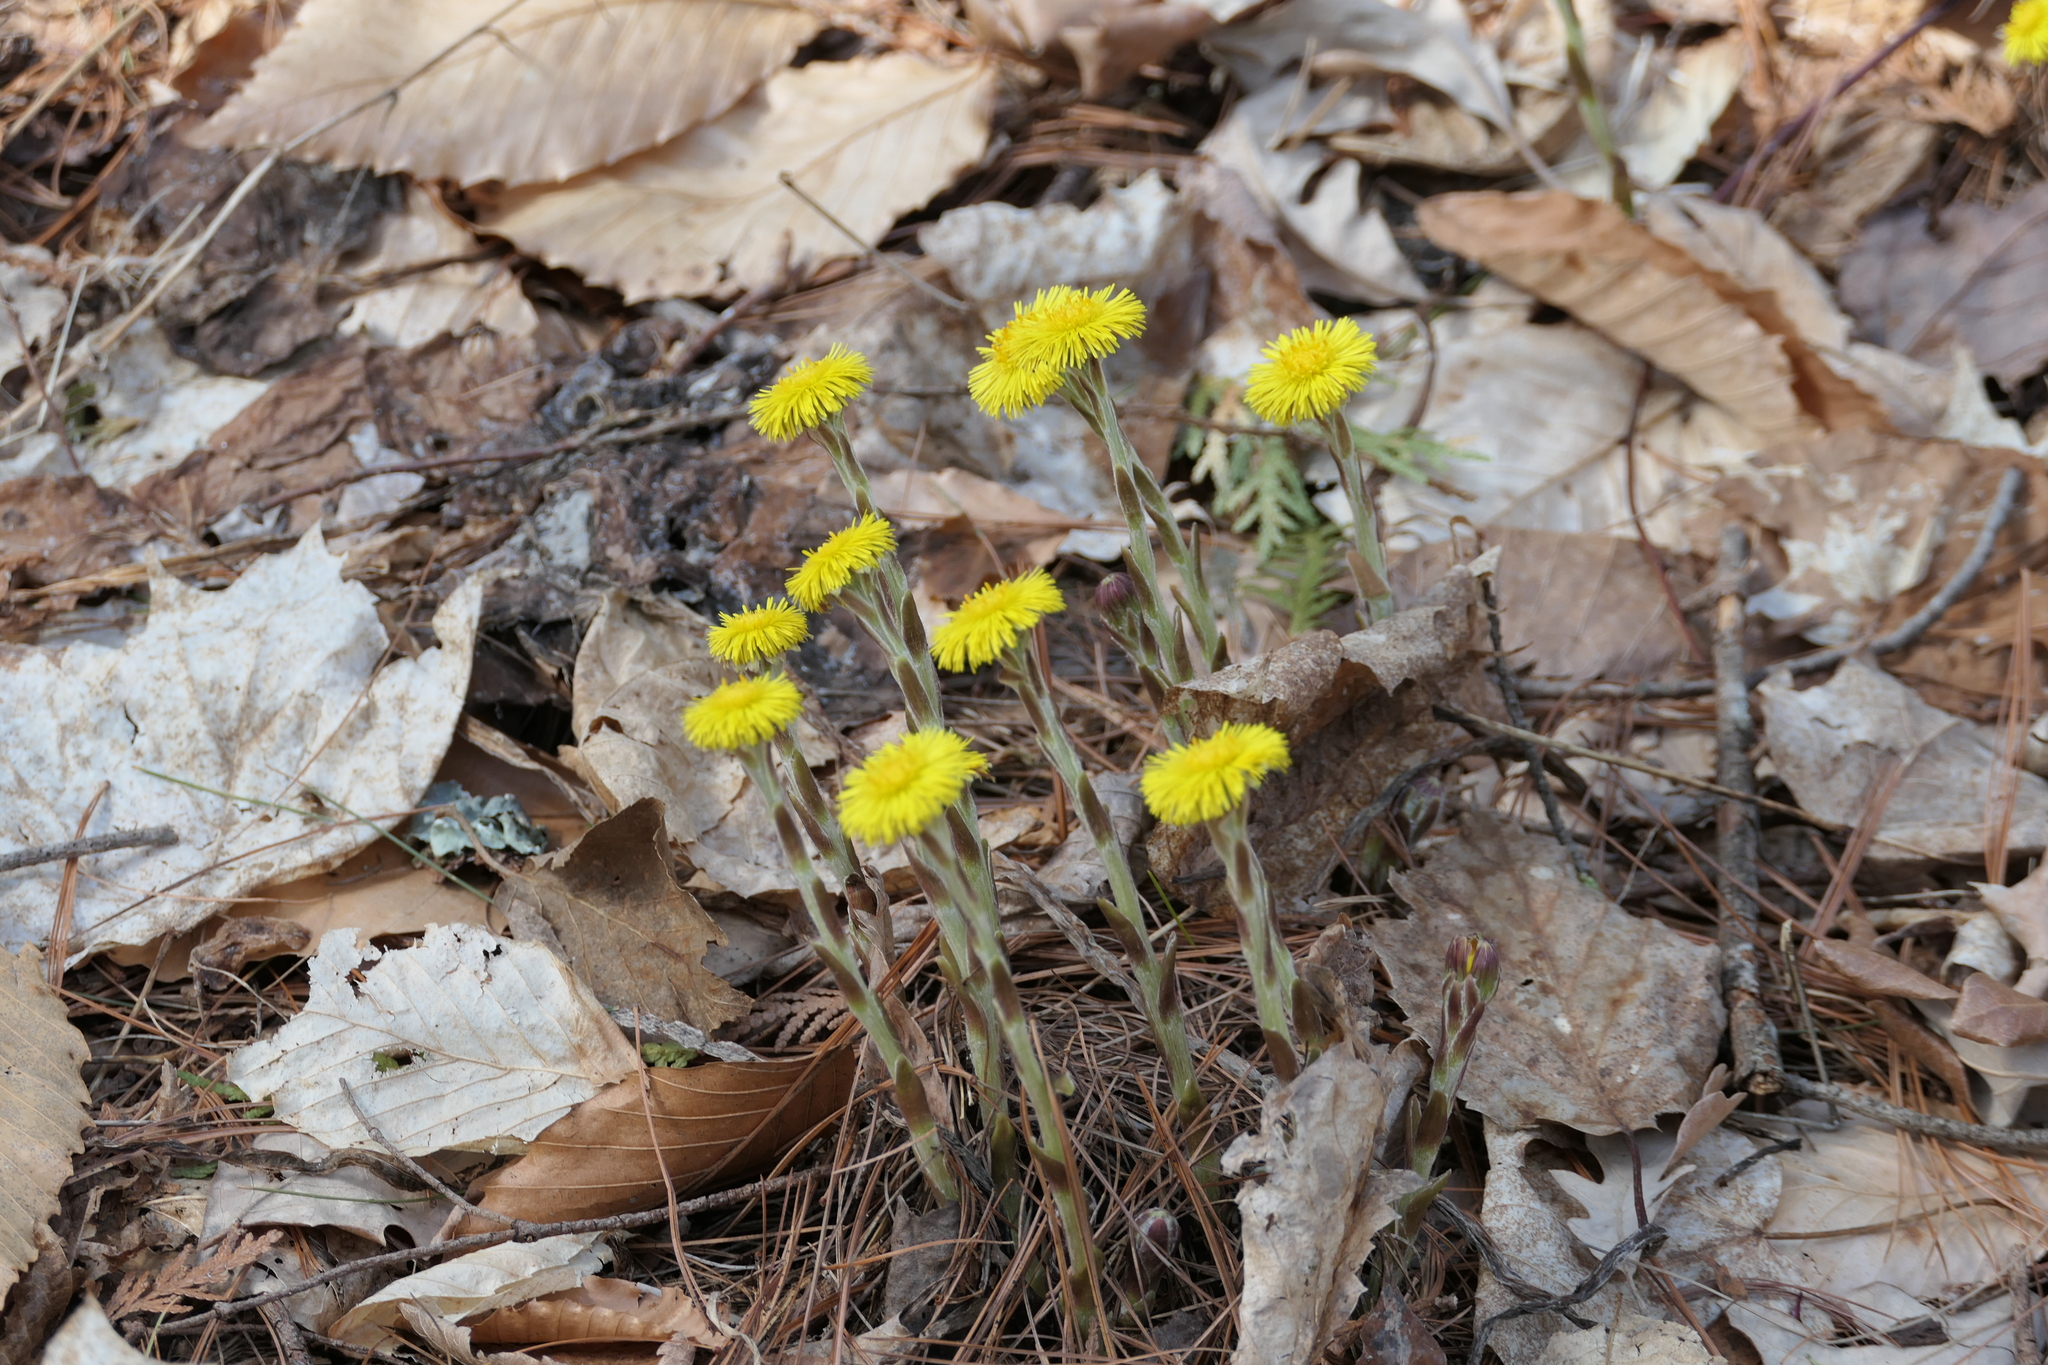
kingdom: Plantae
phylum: Tracheophyta
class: Magnoliopsida
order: Asterales
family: Asteraceae
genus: Tussilago
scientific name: Tussilago farfara
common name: Coltsfoot
